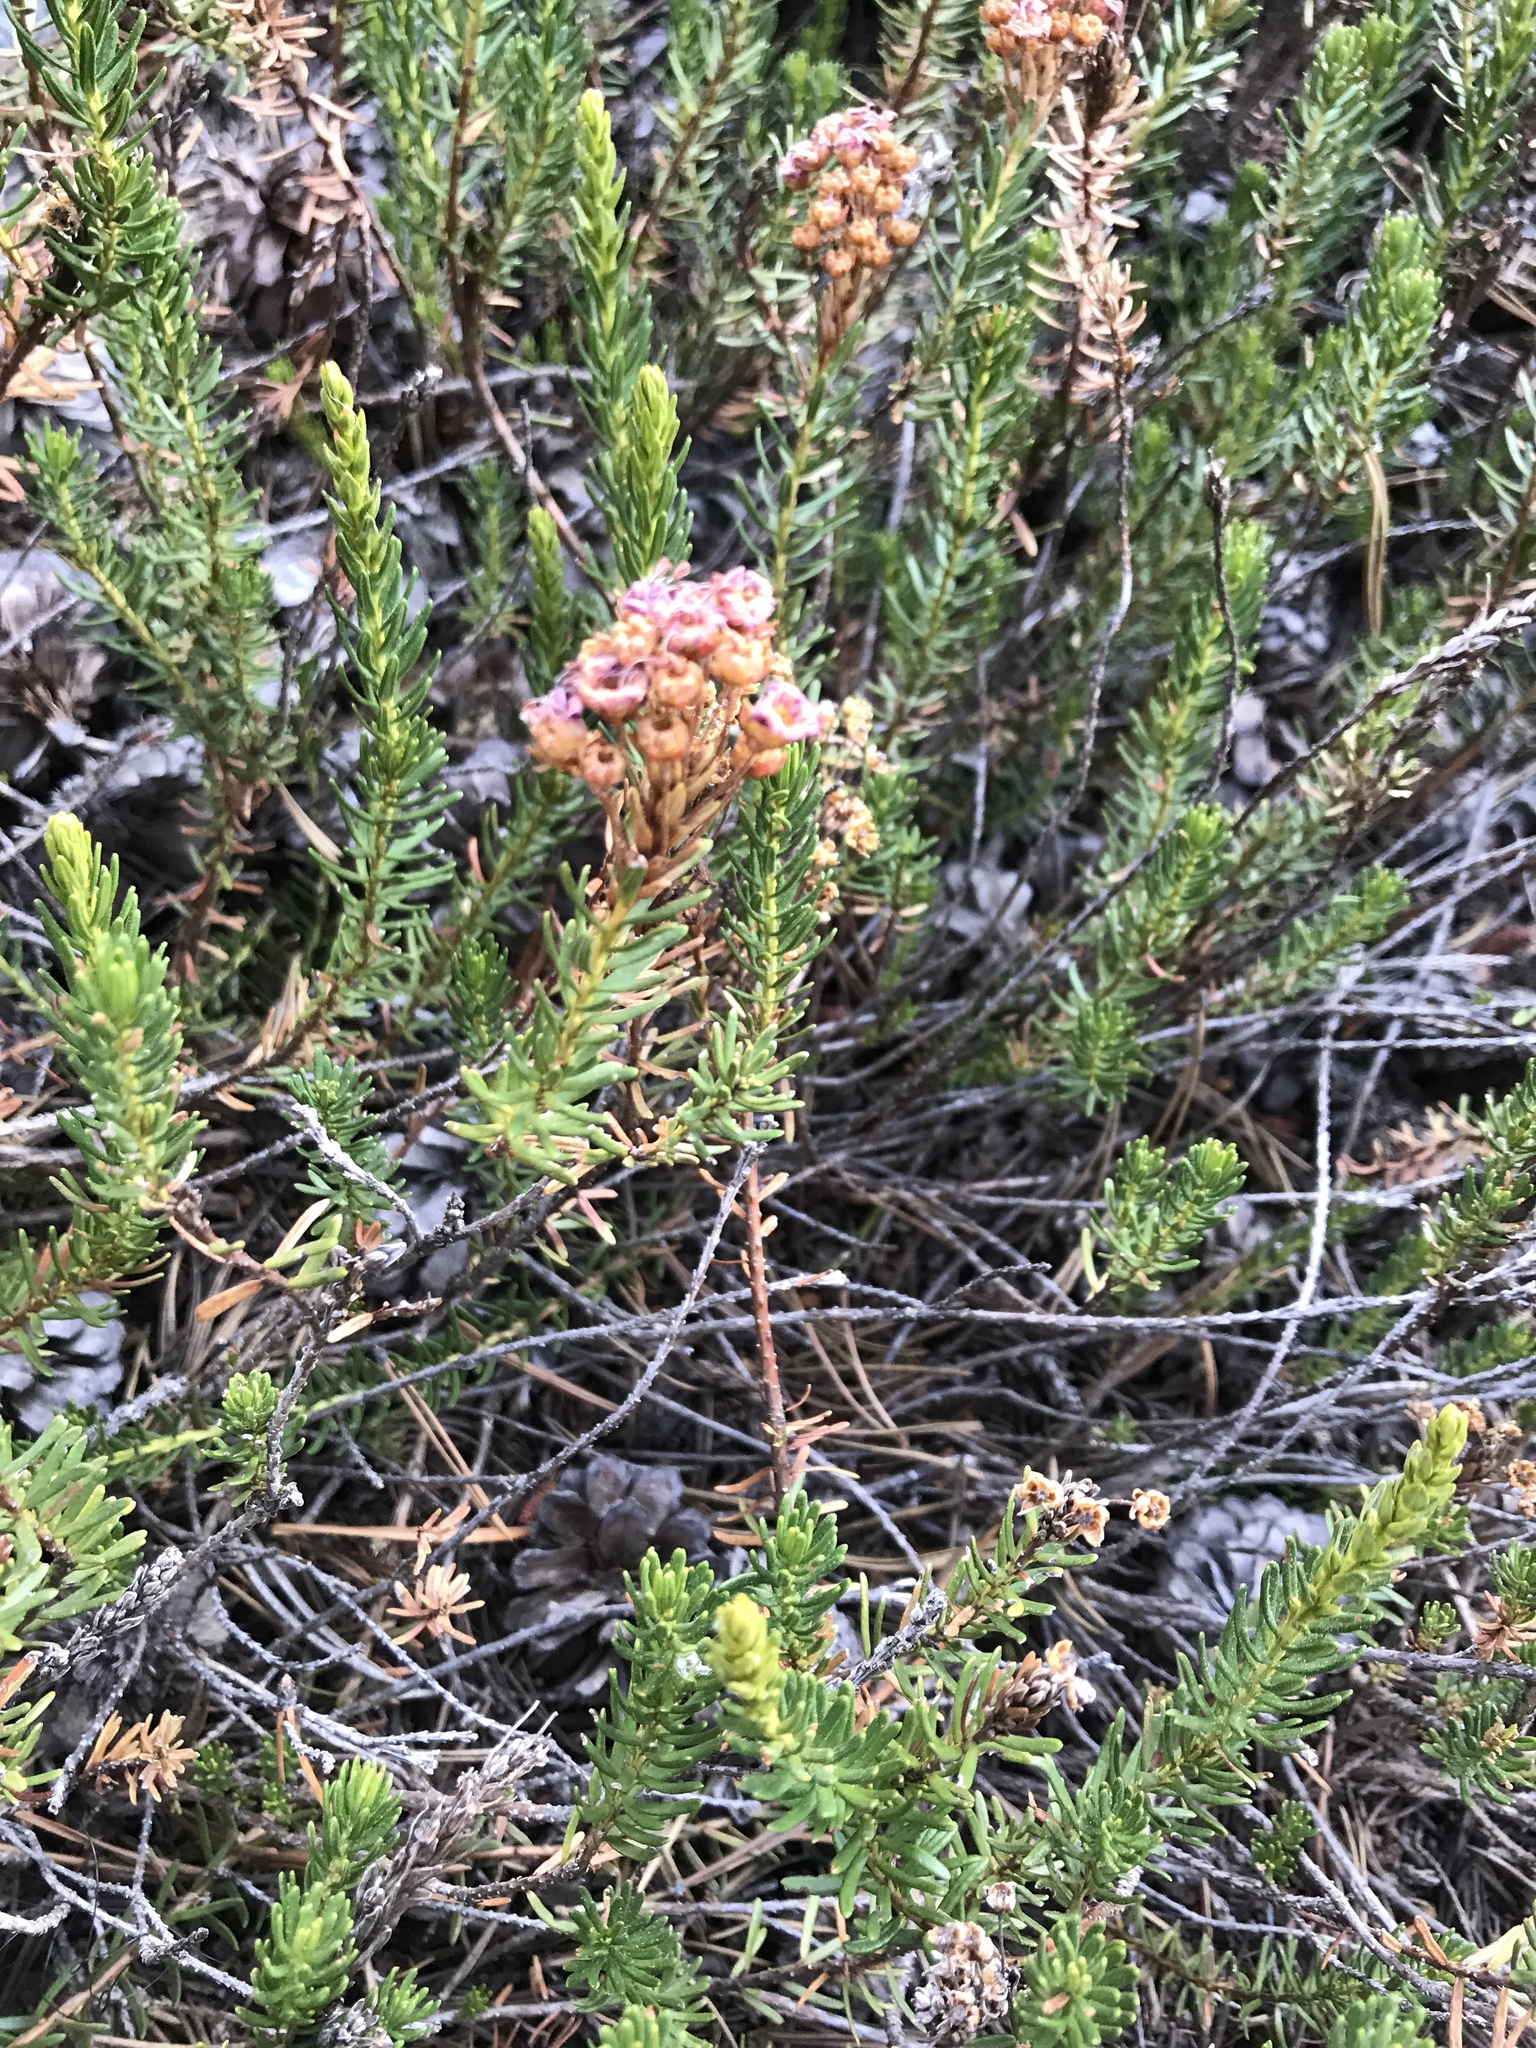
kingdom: Plantae
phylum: Tracheophyta
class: Magnoliopsida
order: Ericales
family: Ericaceae
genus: Phyllodoce
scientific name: Phyllodoce breweri
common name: Brewer's mountain-heather
